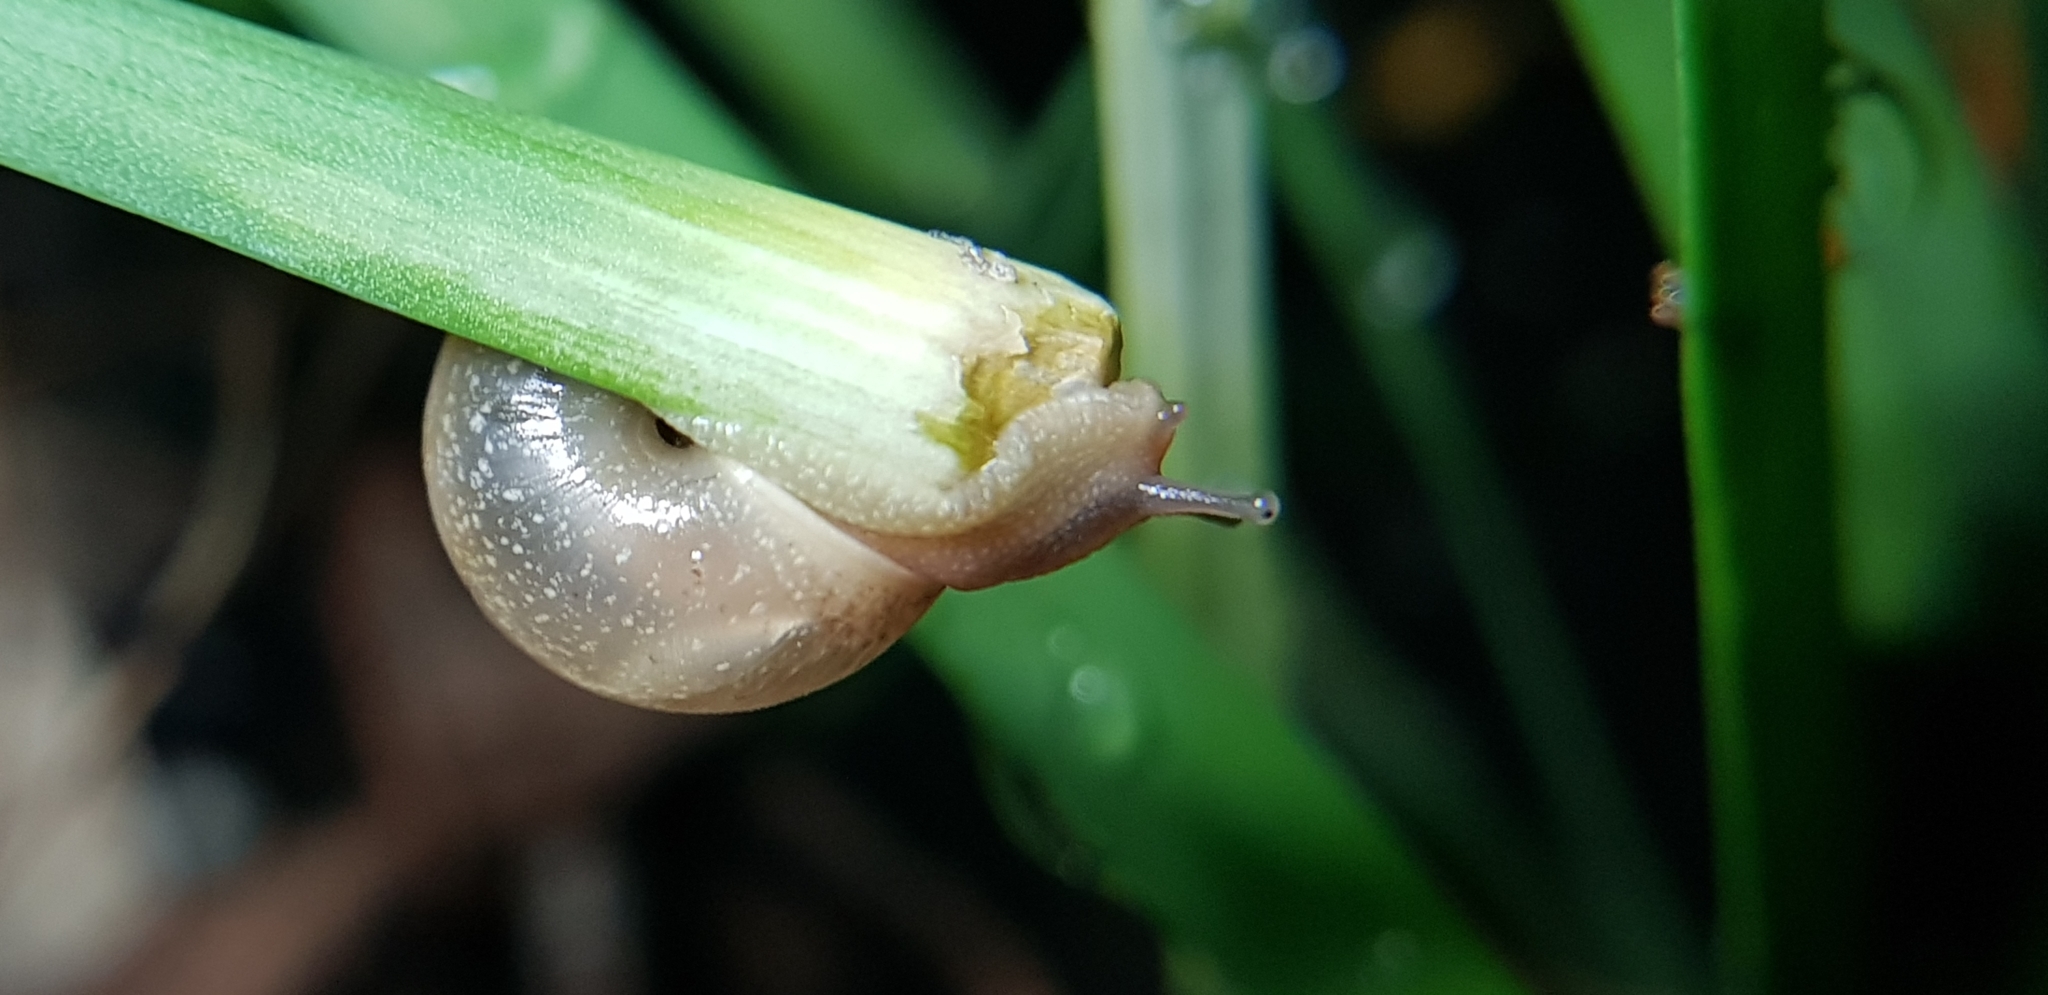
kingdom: Animalia
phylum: Mollusca
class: Gastropoda
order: Stylommatophora
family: Camaenidae
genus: Bradybaena
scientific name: Bradybaena similaris
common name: Asian trampsnail
